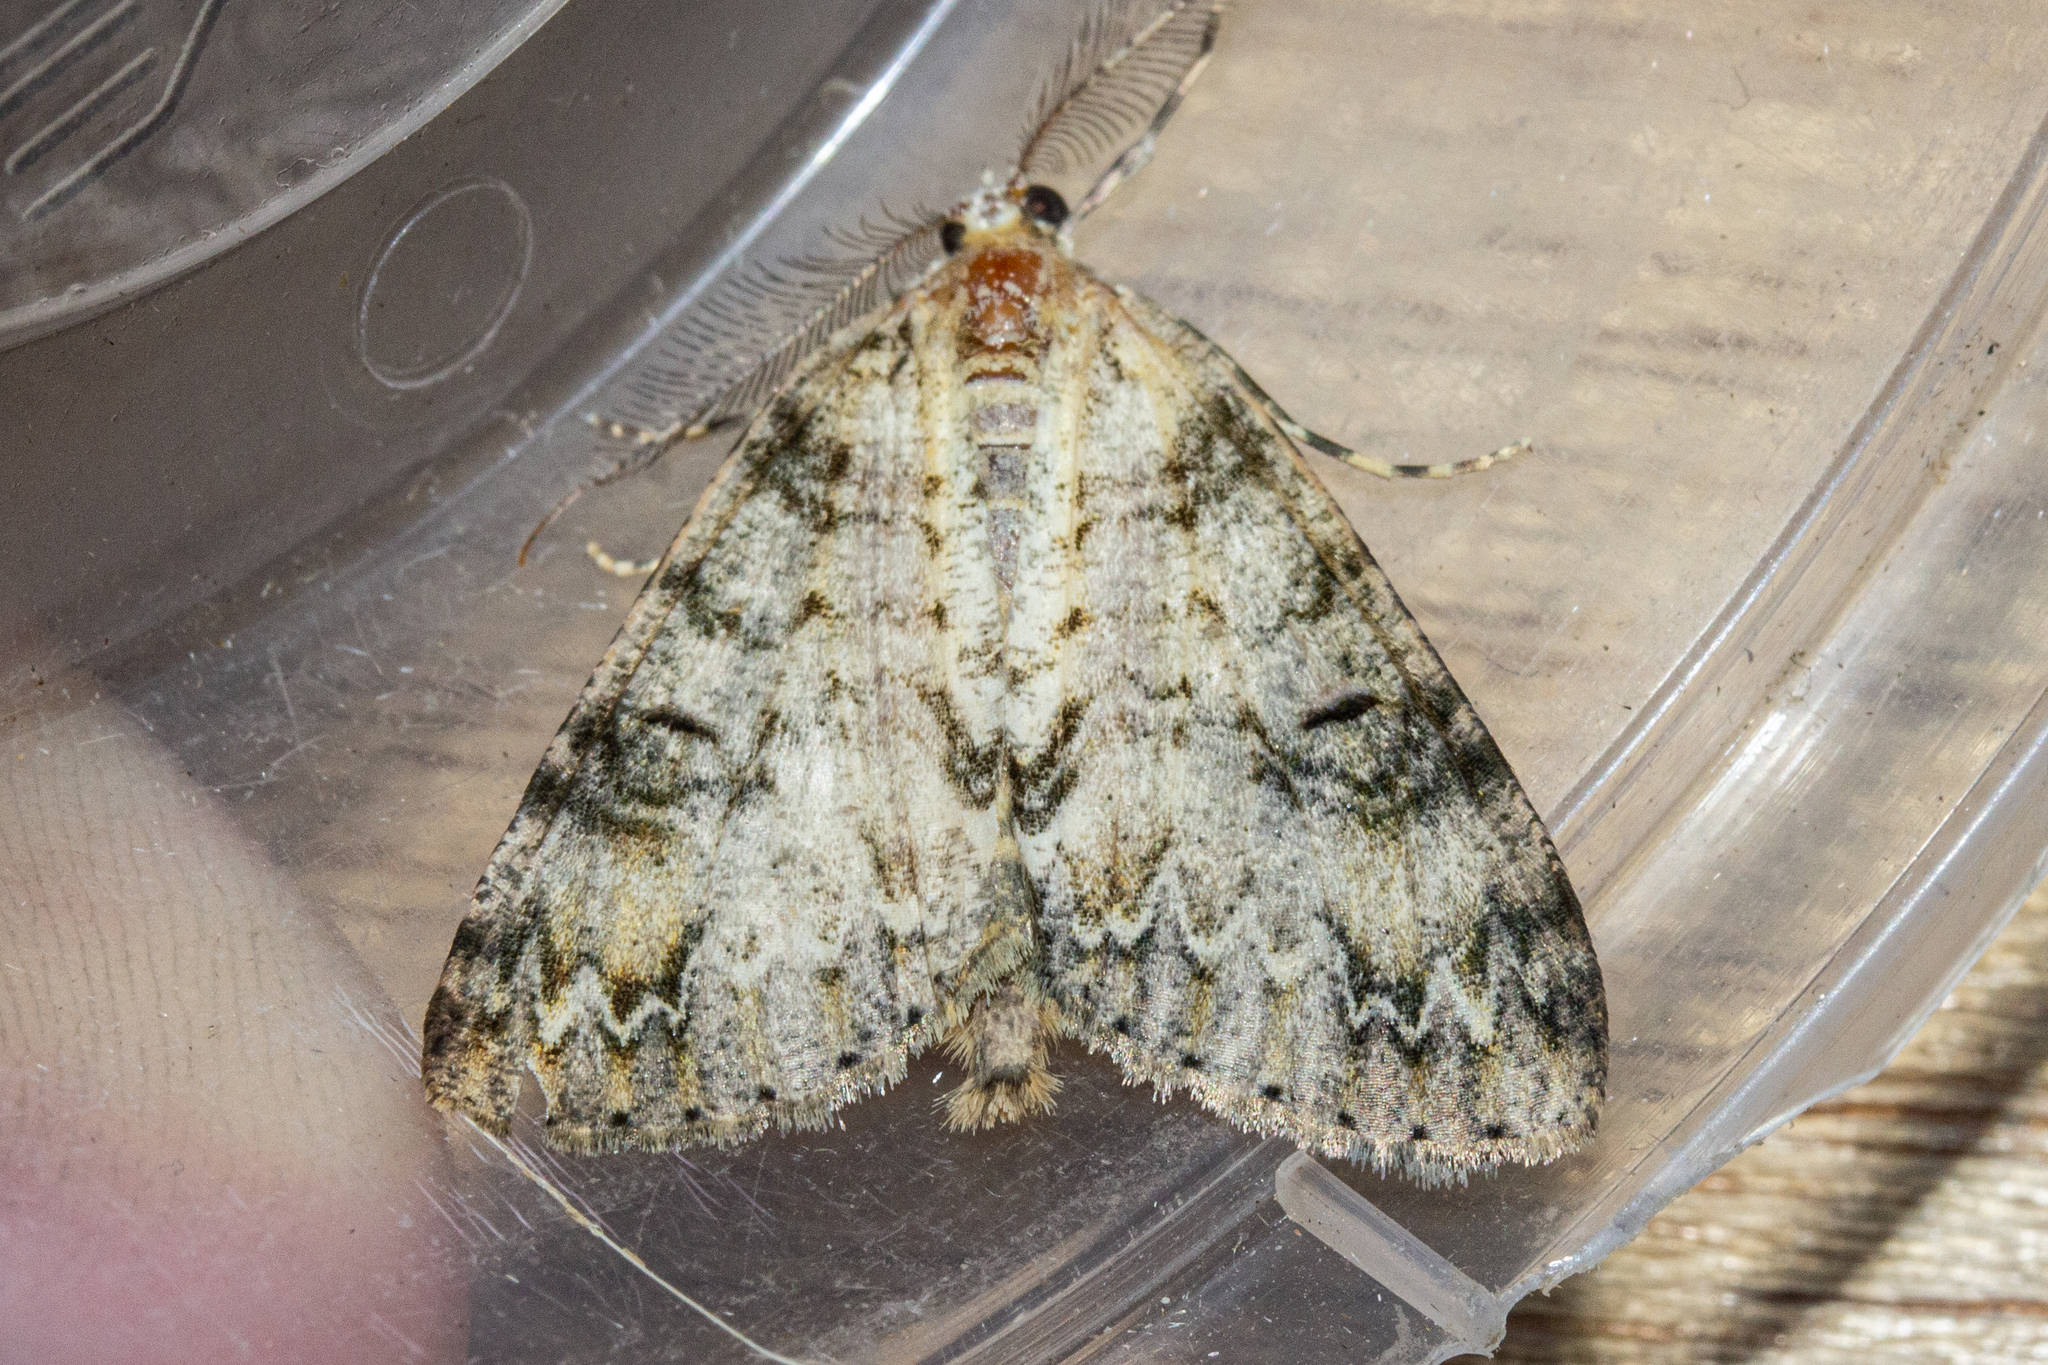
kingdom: Animalia
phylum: Arthropoda
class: Insecta
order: Lepidoptera
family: Geometridae
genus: Pseudocoremia
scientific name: Pseudocoremia suavis
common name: Common forest looper
